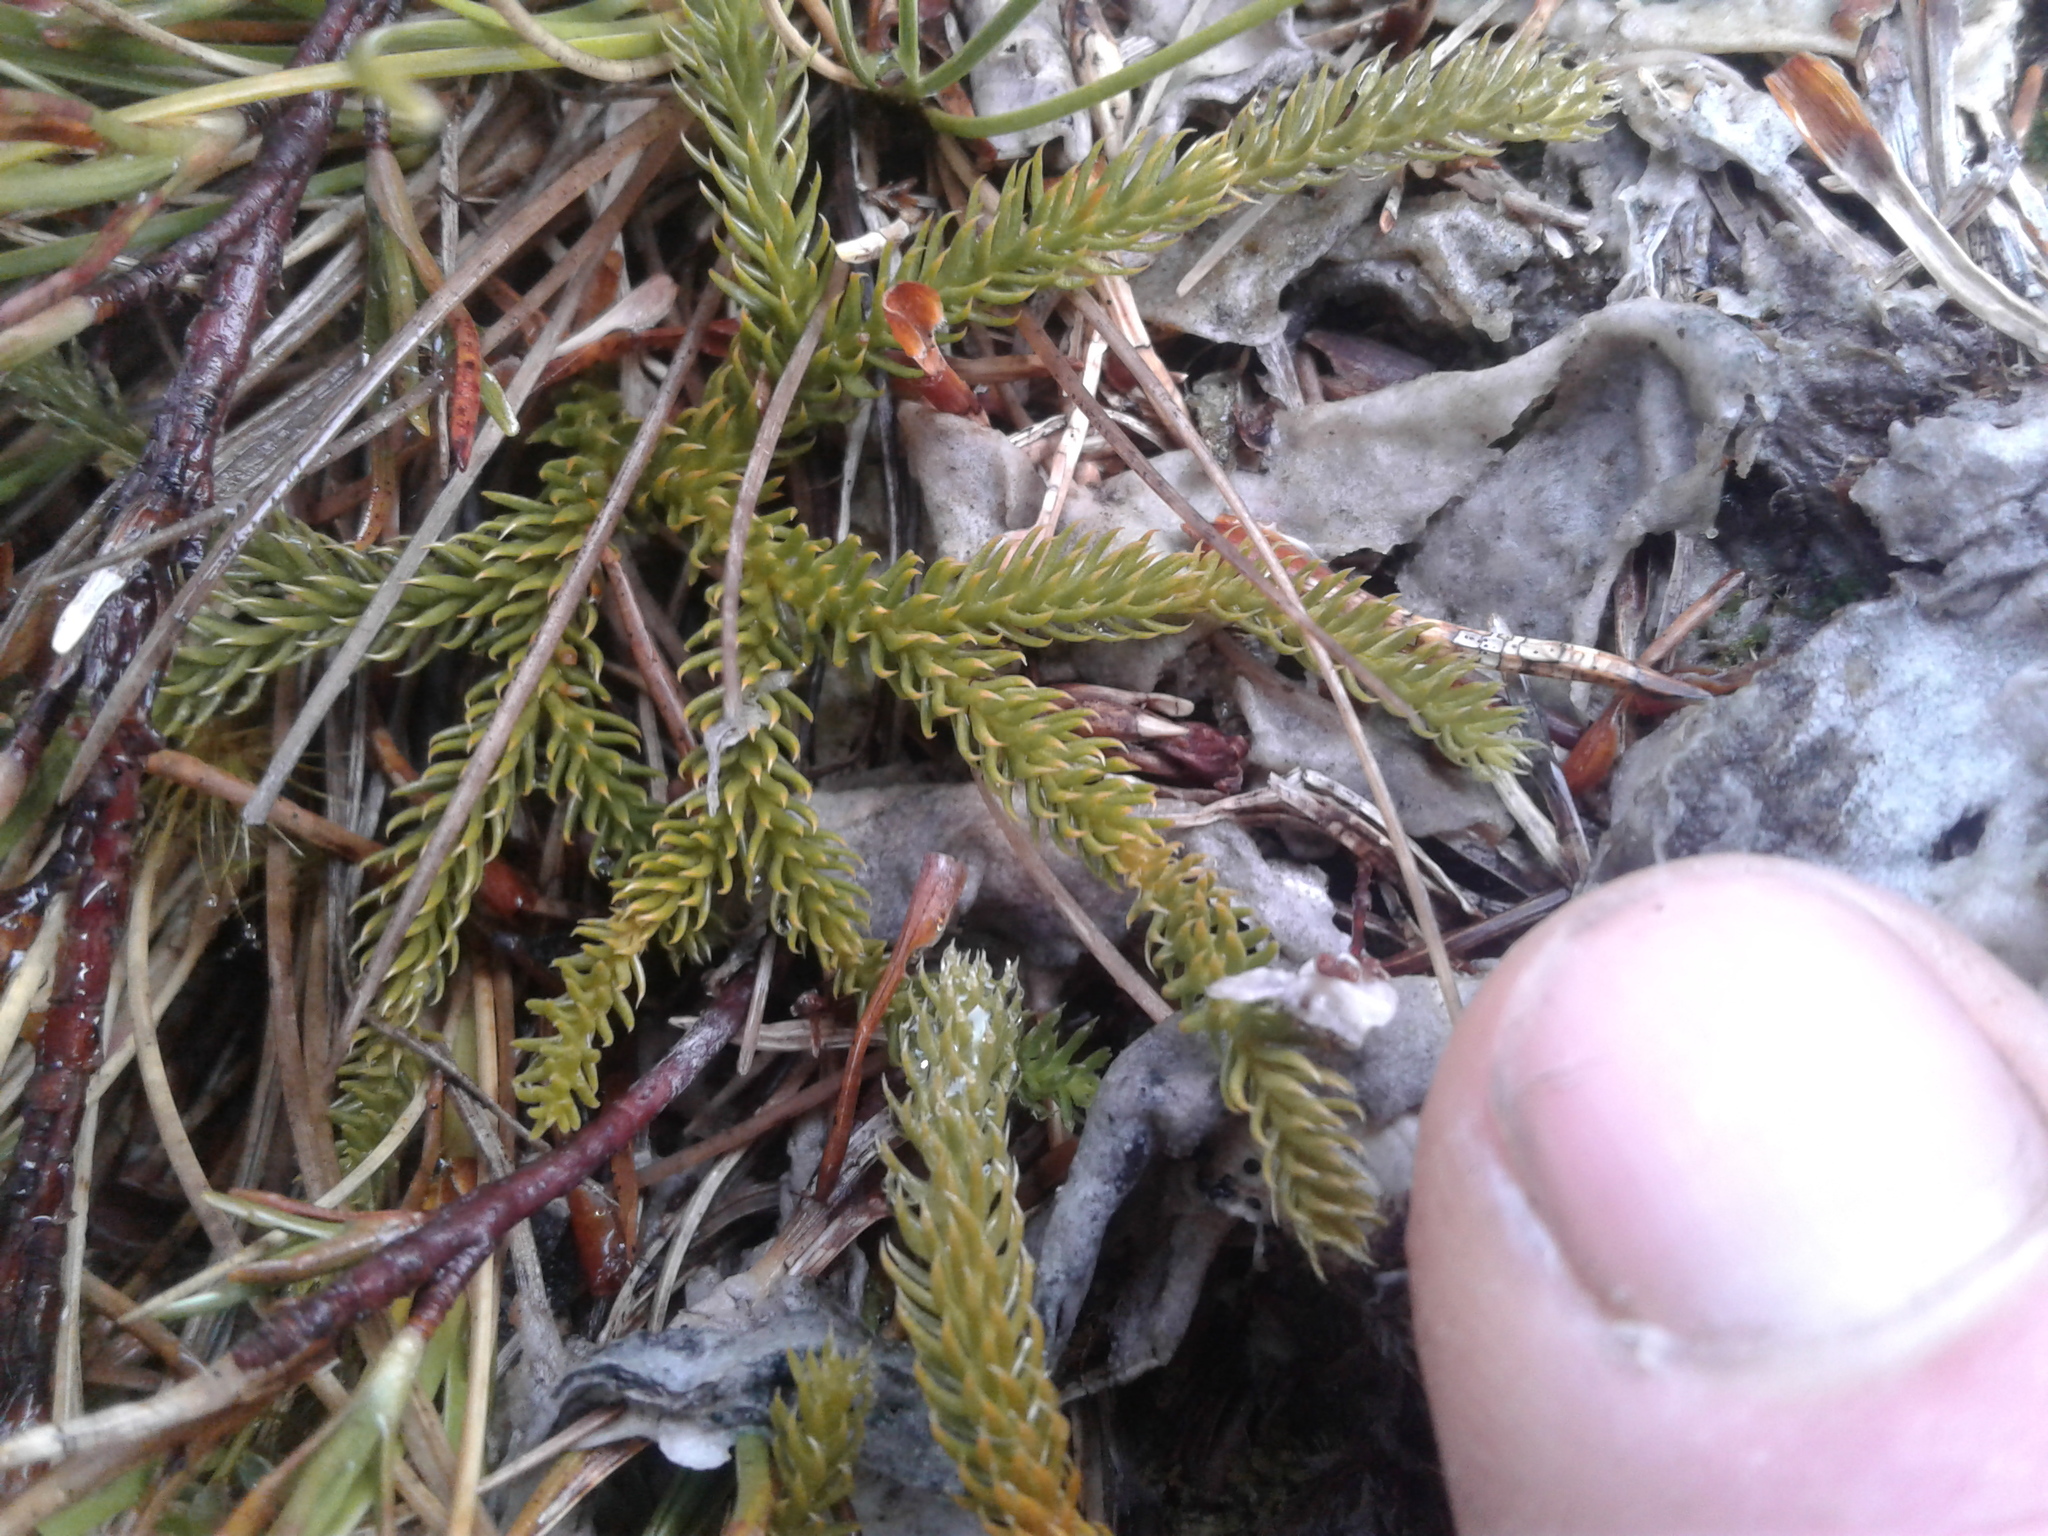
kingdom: Plantae
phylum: Tracheophyta
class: Lycopodiopsida
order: Lycopodiales
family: Lycopodiaceae
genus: Austrolycopodium
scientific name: Austrolycopodium fastigiatum
